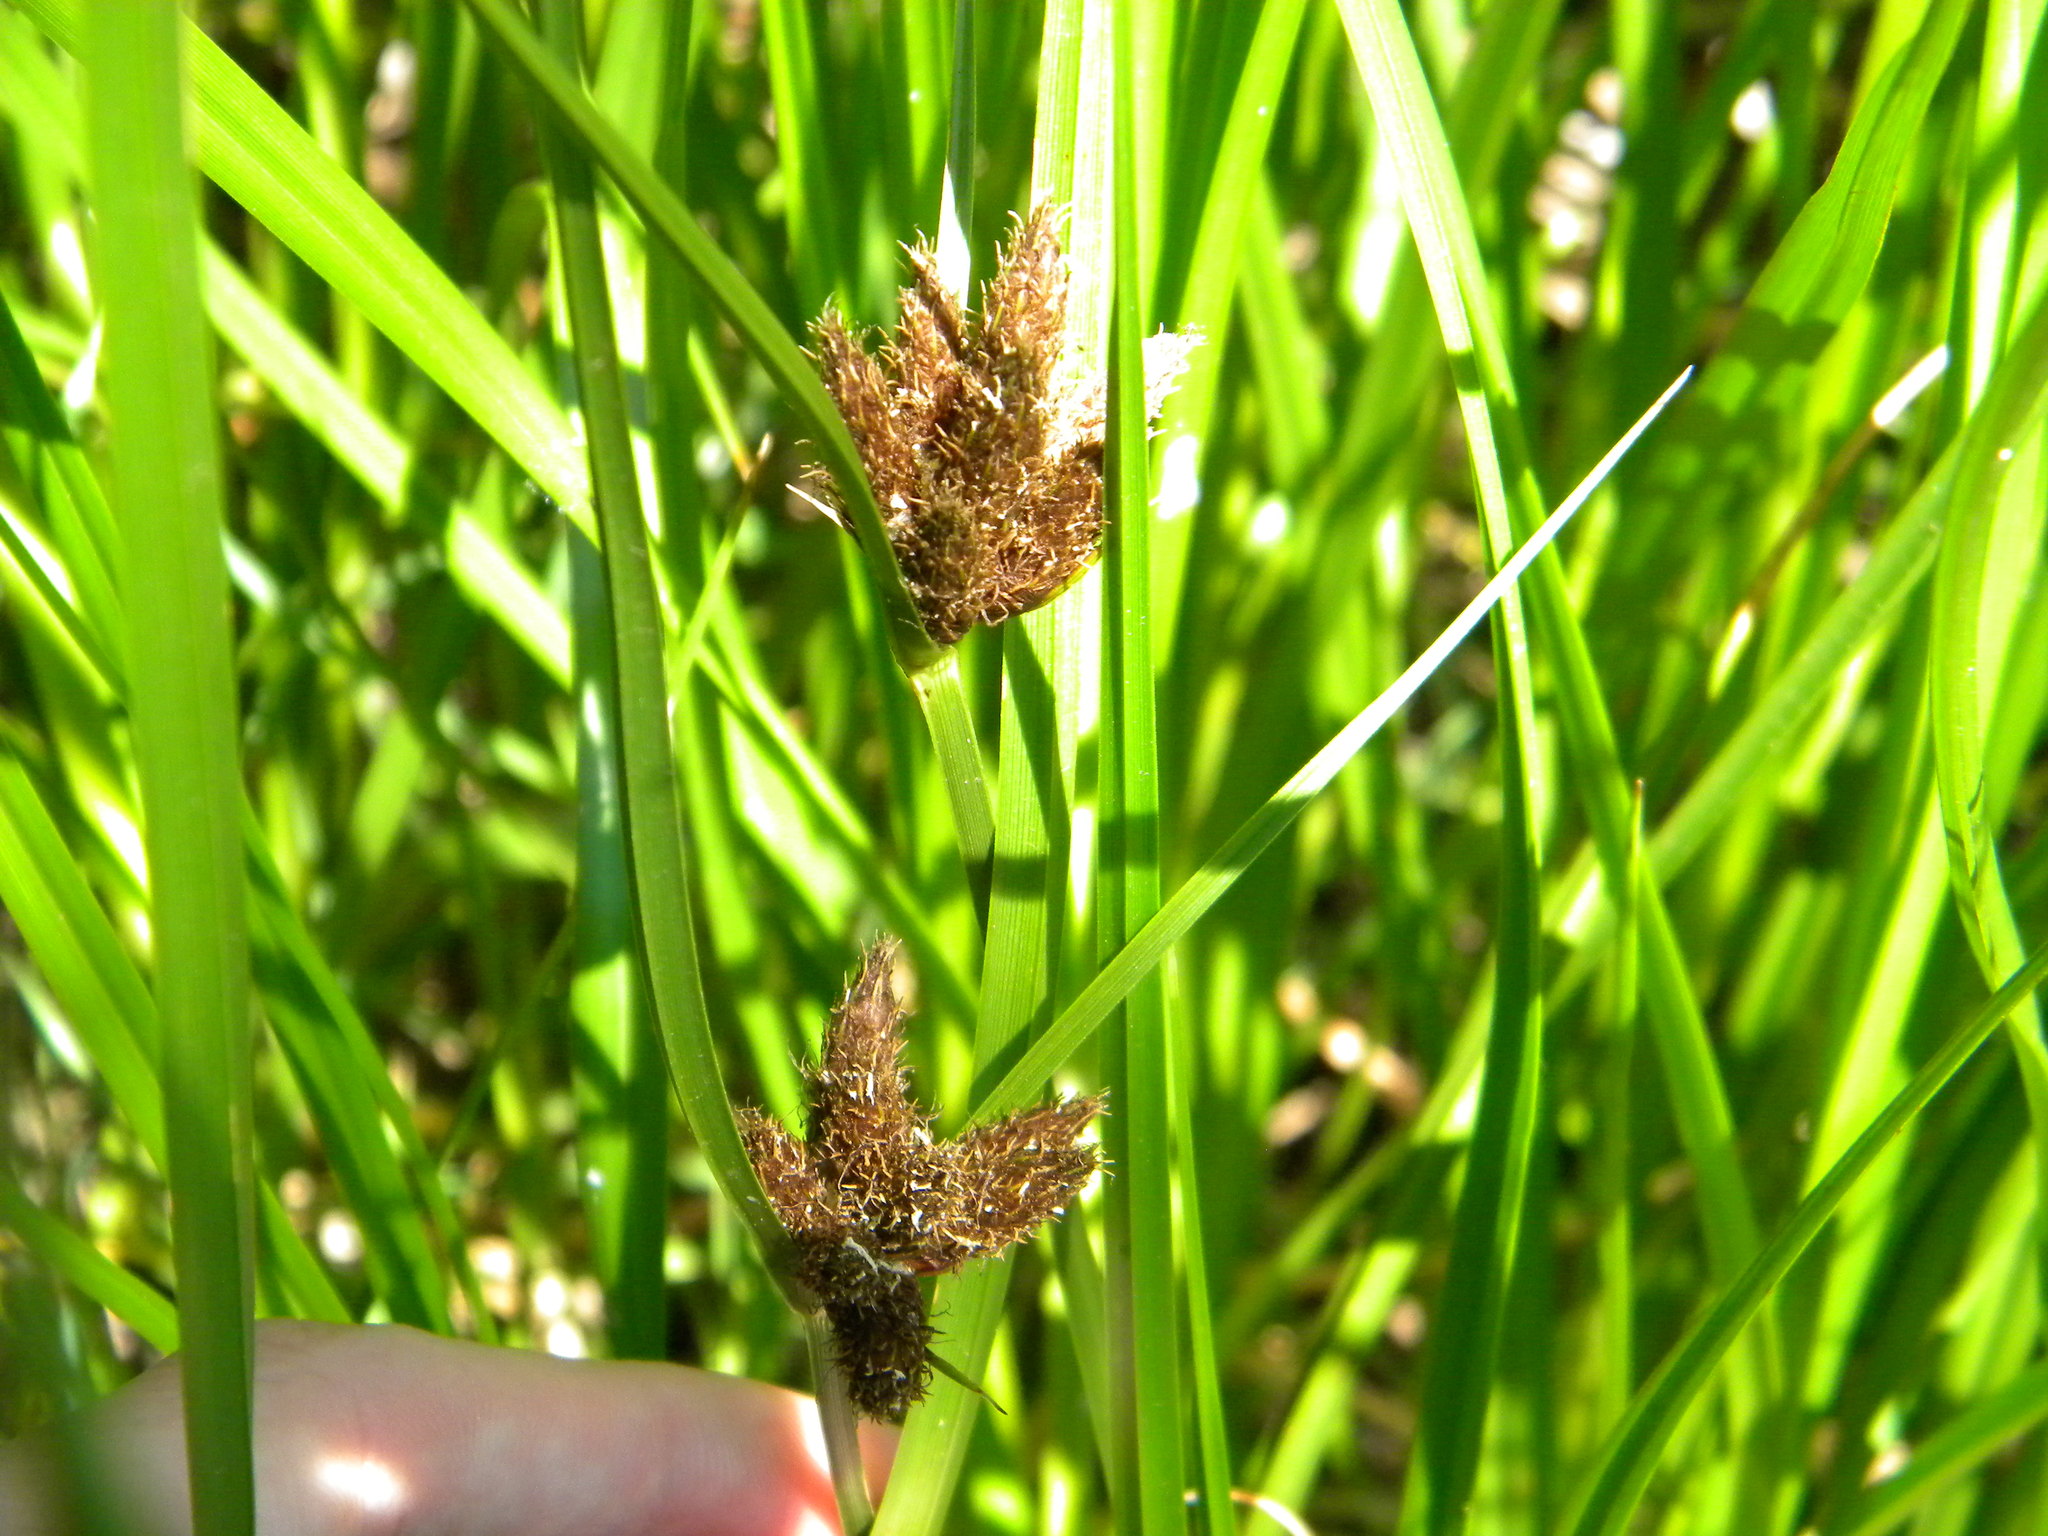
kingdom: Plantae
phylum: Tracheophyta
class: Liliopsida
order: Poales
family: Cyperaceae
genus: Bolboschoenus
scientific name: Bolboschoenus maritimus
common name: Sea club-rush
